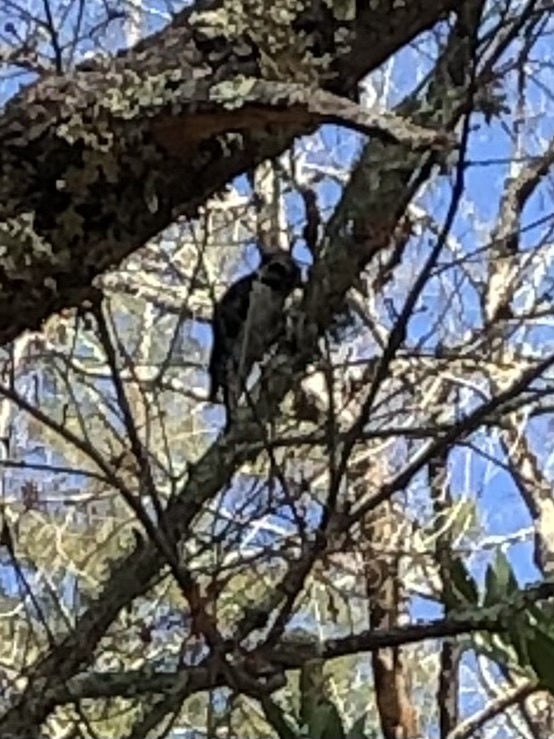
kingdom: Animalia
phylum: Chordata
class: Aves
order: Piciformes
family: Picidae
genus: Dryobates
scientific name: Dryobates pubescens
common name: Downy woodpecker
